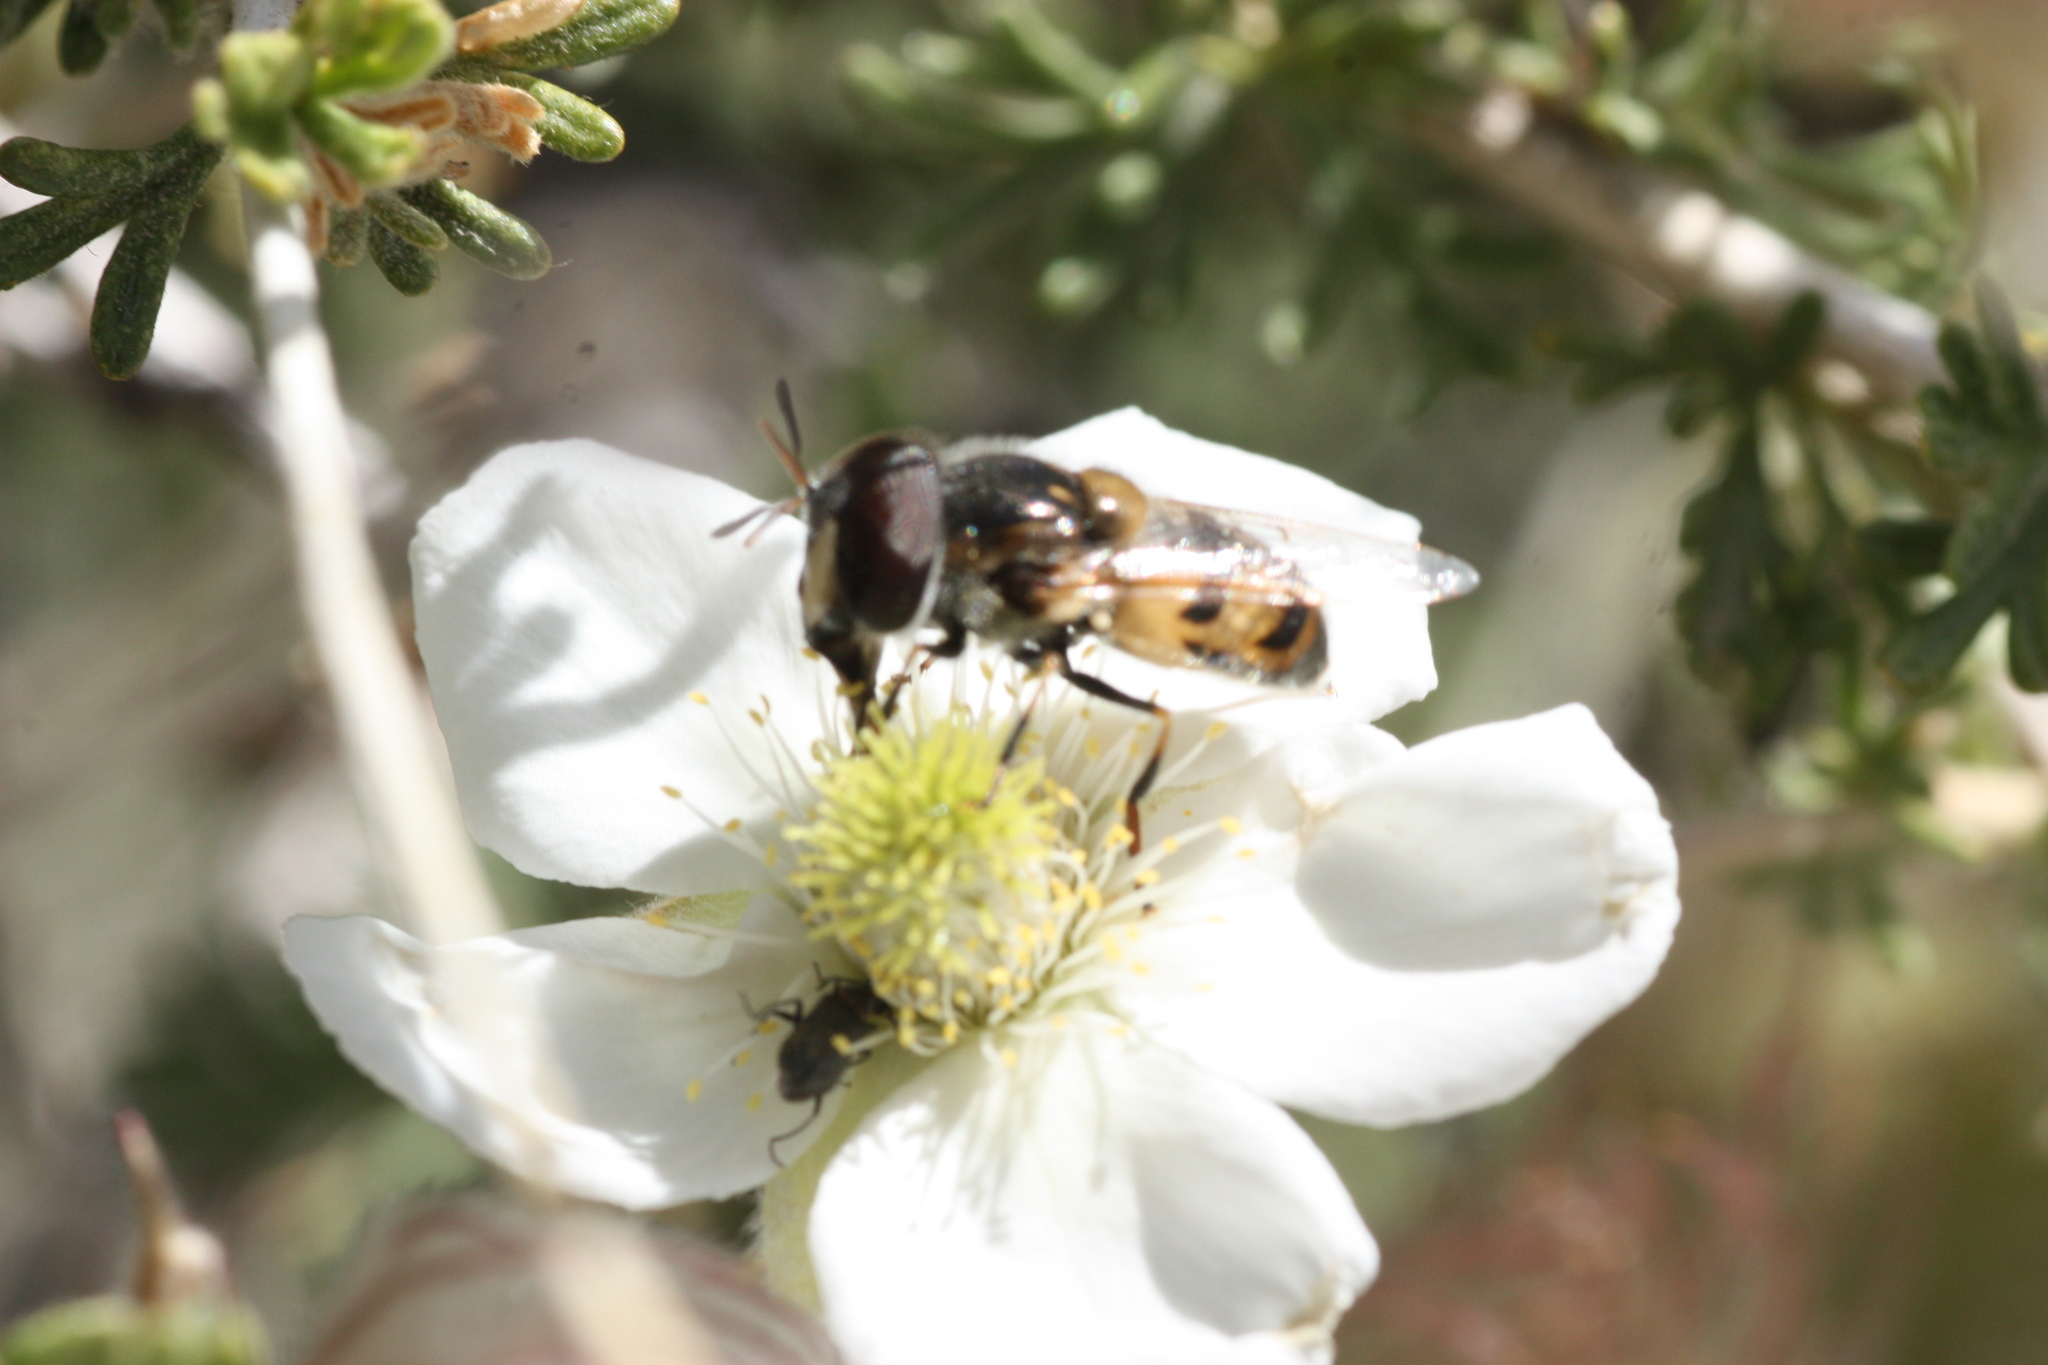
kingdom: Animalia
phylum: Arthropoda
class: Insecta
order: Diptera
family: Syrphidae
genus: Copestylum
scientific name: Copestylum marginatum
